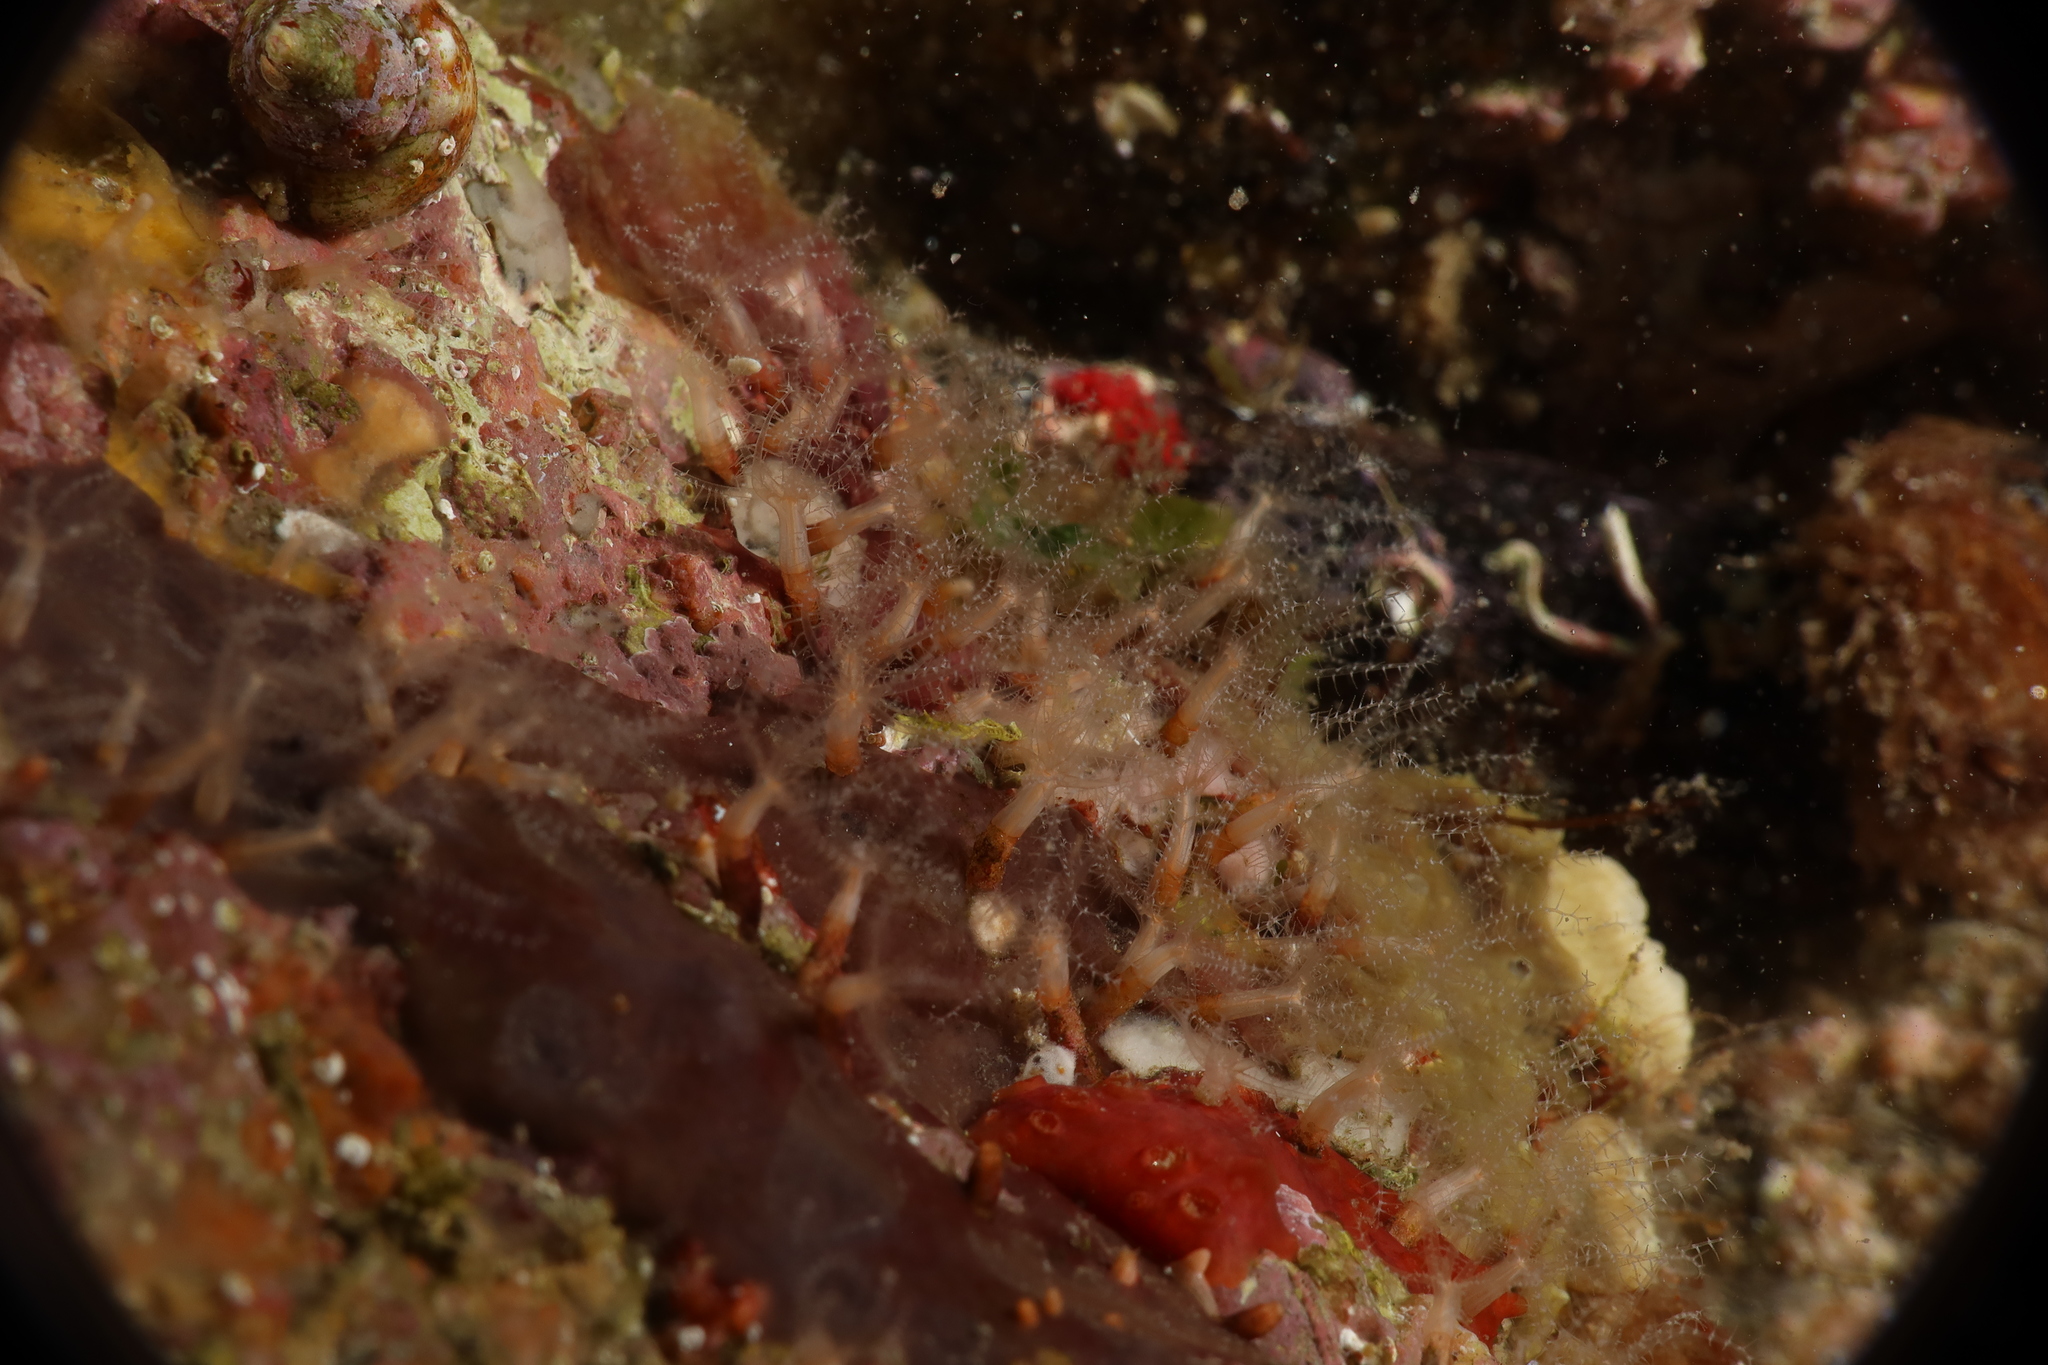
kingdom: Animalia
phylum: Cnidaria
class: Anthozoa
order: Malacalcyonacea
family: Clavulariidae
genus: Clavularia
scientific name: Clavularia crassa
